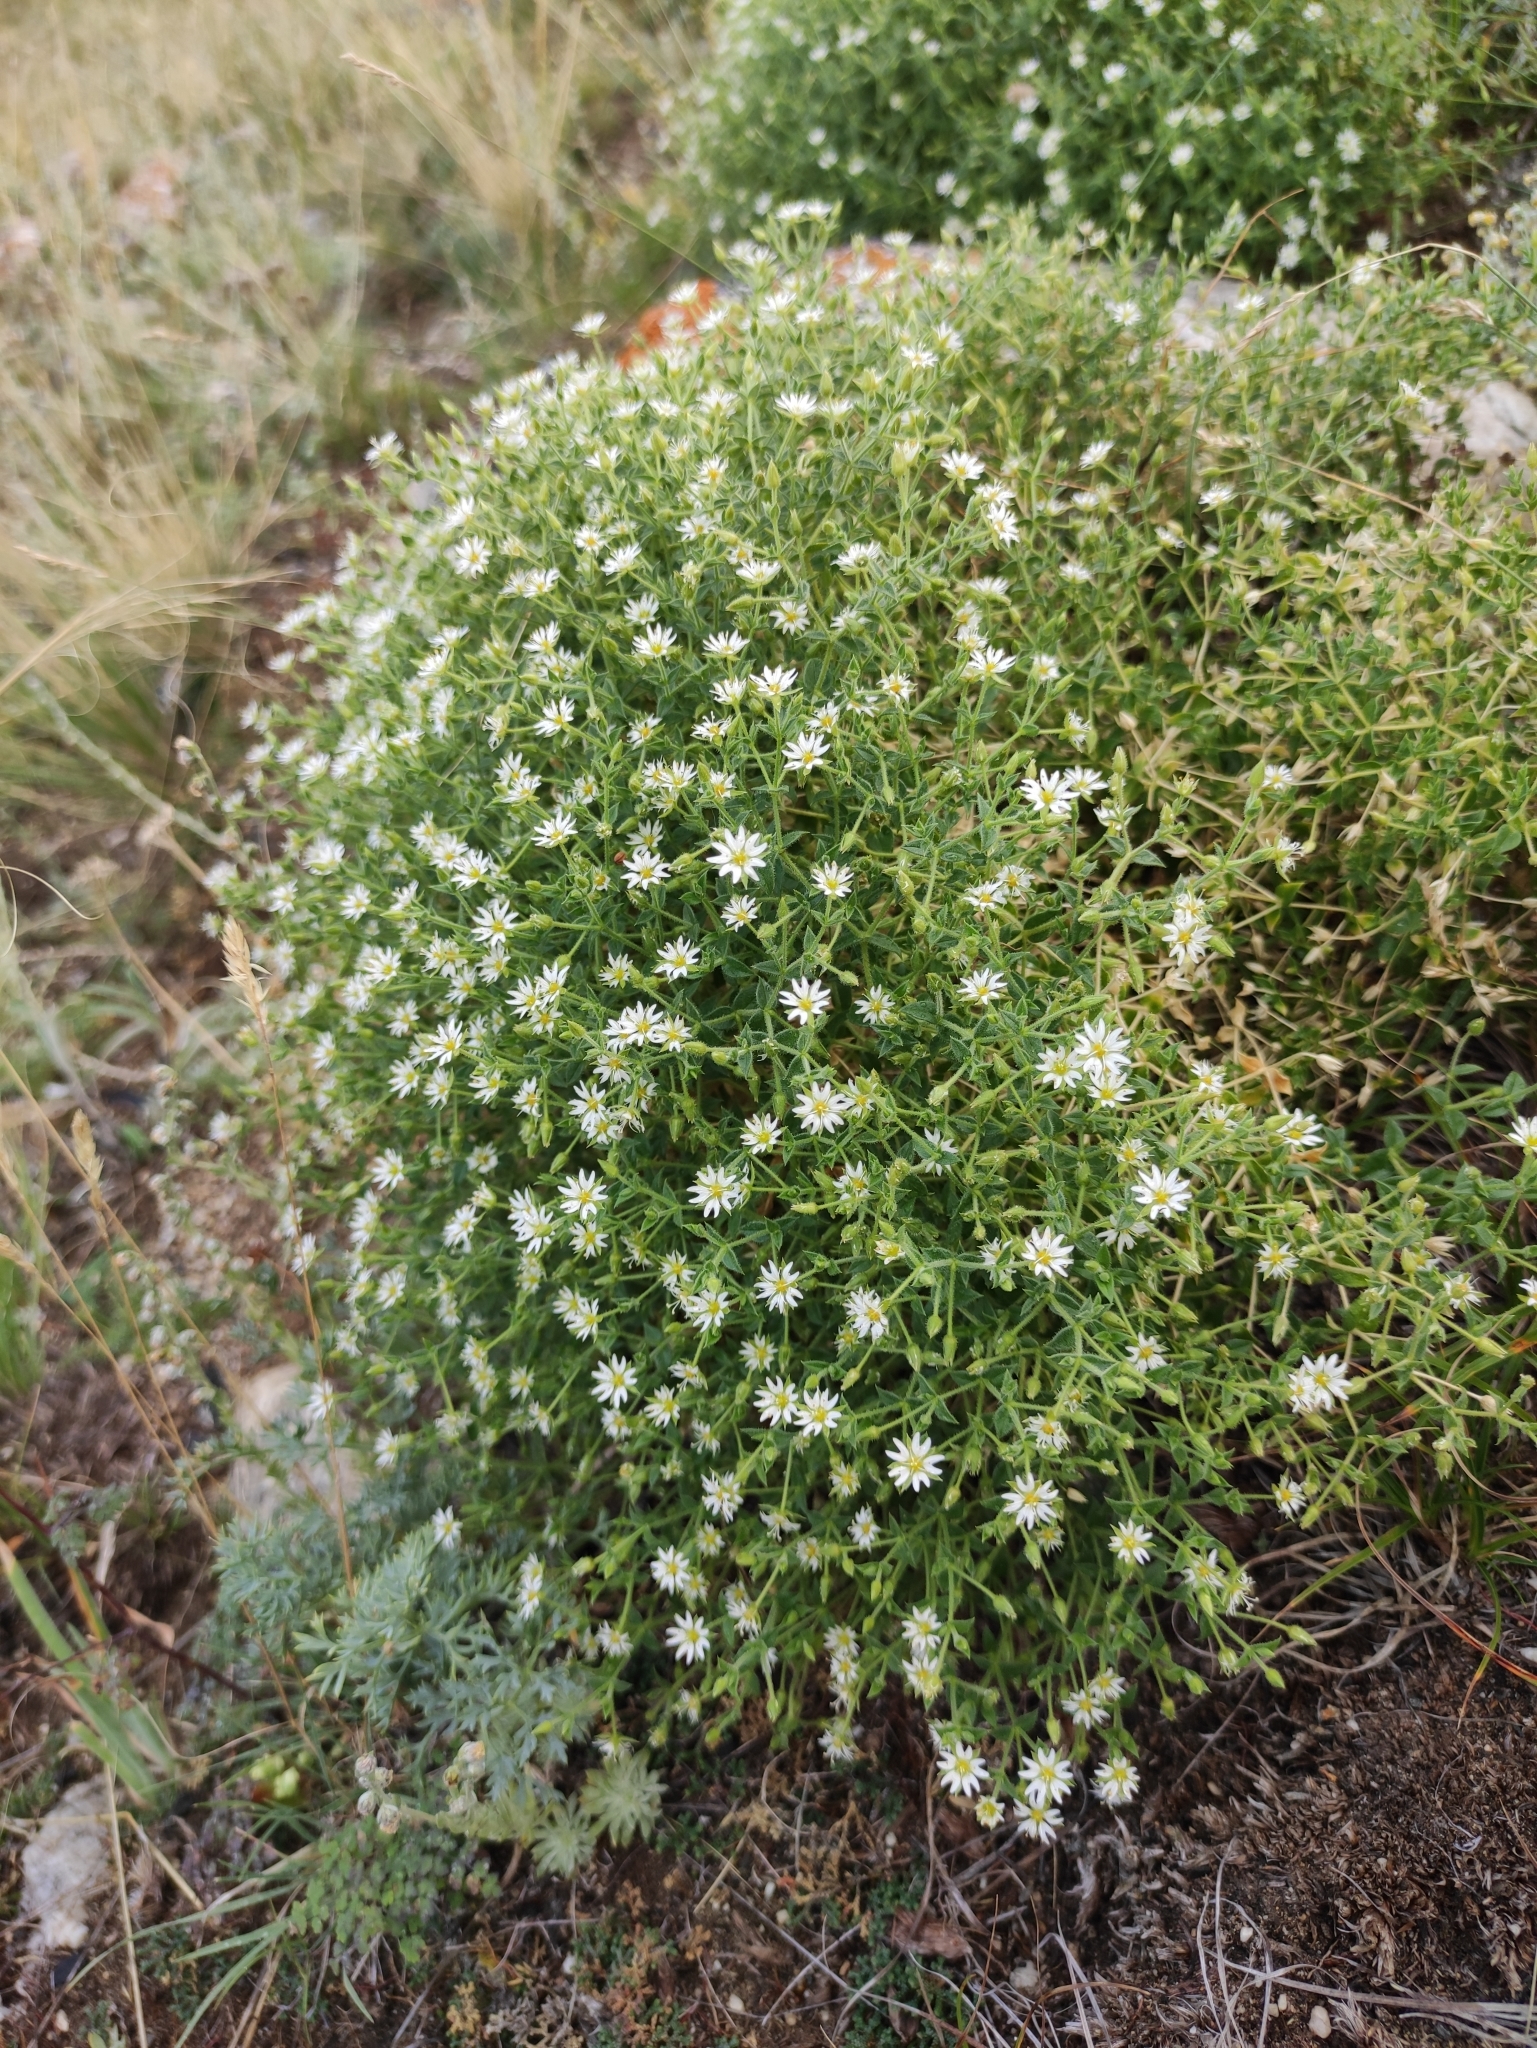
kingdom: Plantae
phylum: Tracheophyta
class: Magnoliopsida
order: Caryophyllales
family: Caryophyllaceae
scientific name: Caryophyllaceae
